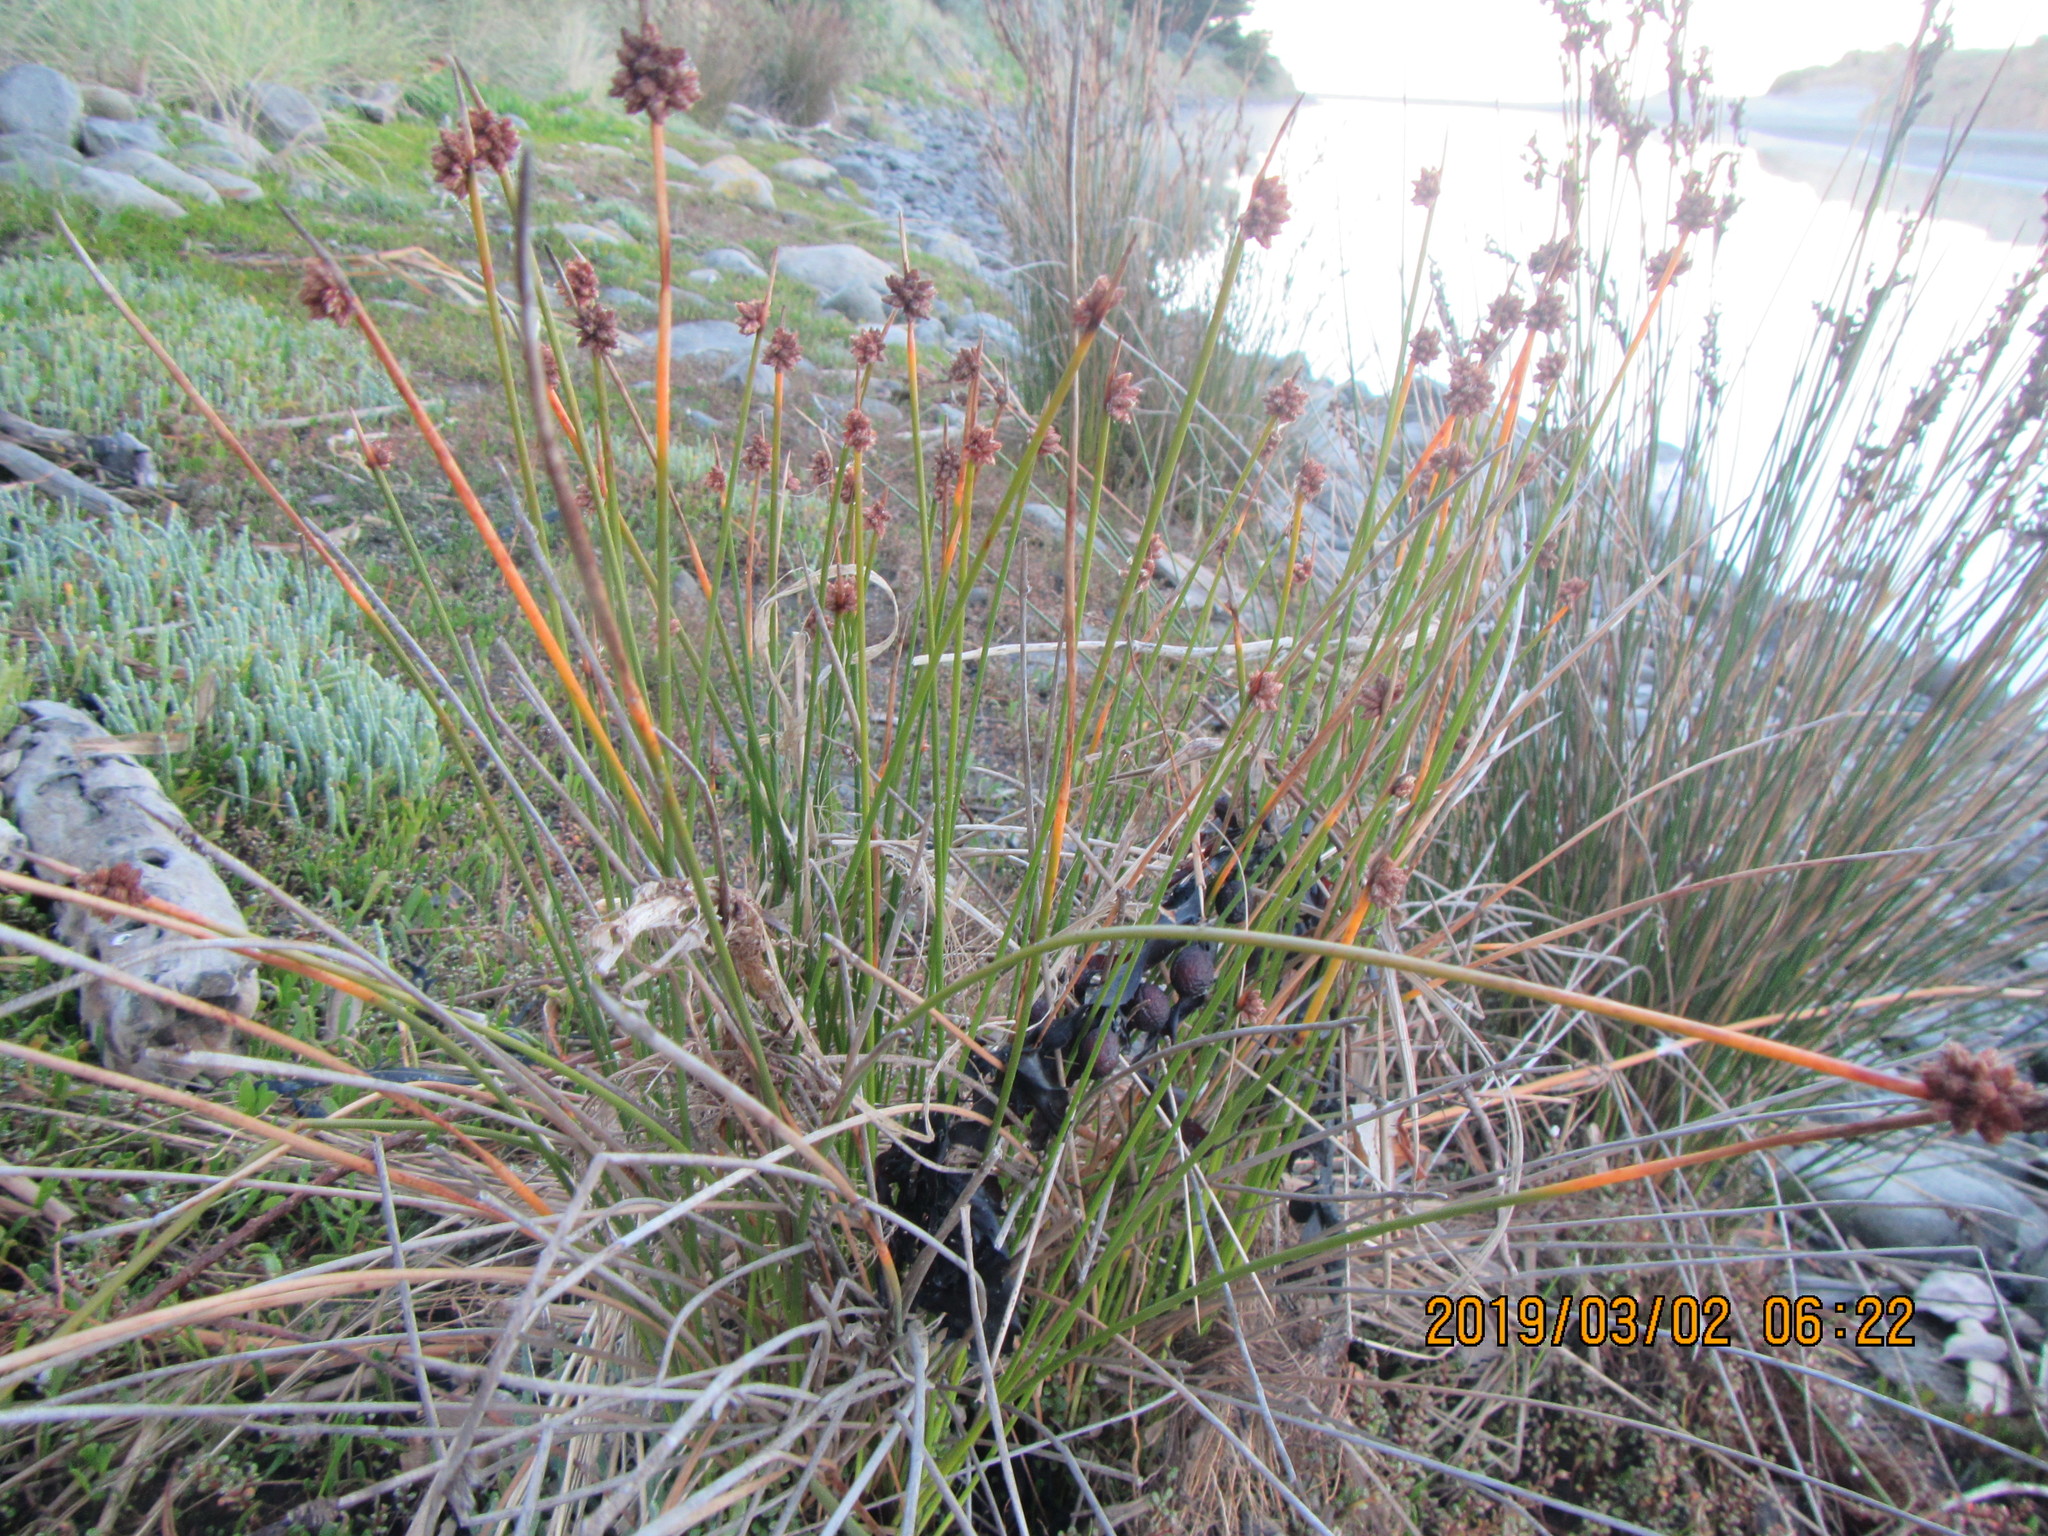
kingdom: Plantae
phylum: Tracheophyta
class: Liliopsida
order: Poales
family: Cyperaceae
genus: Ficinia
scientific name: Ficinia nodosa
